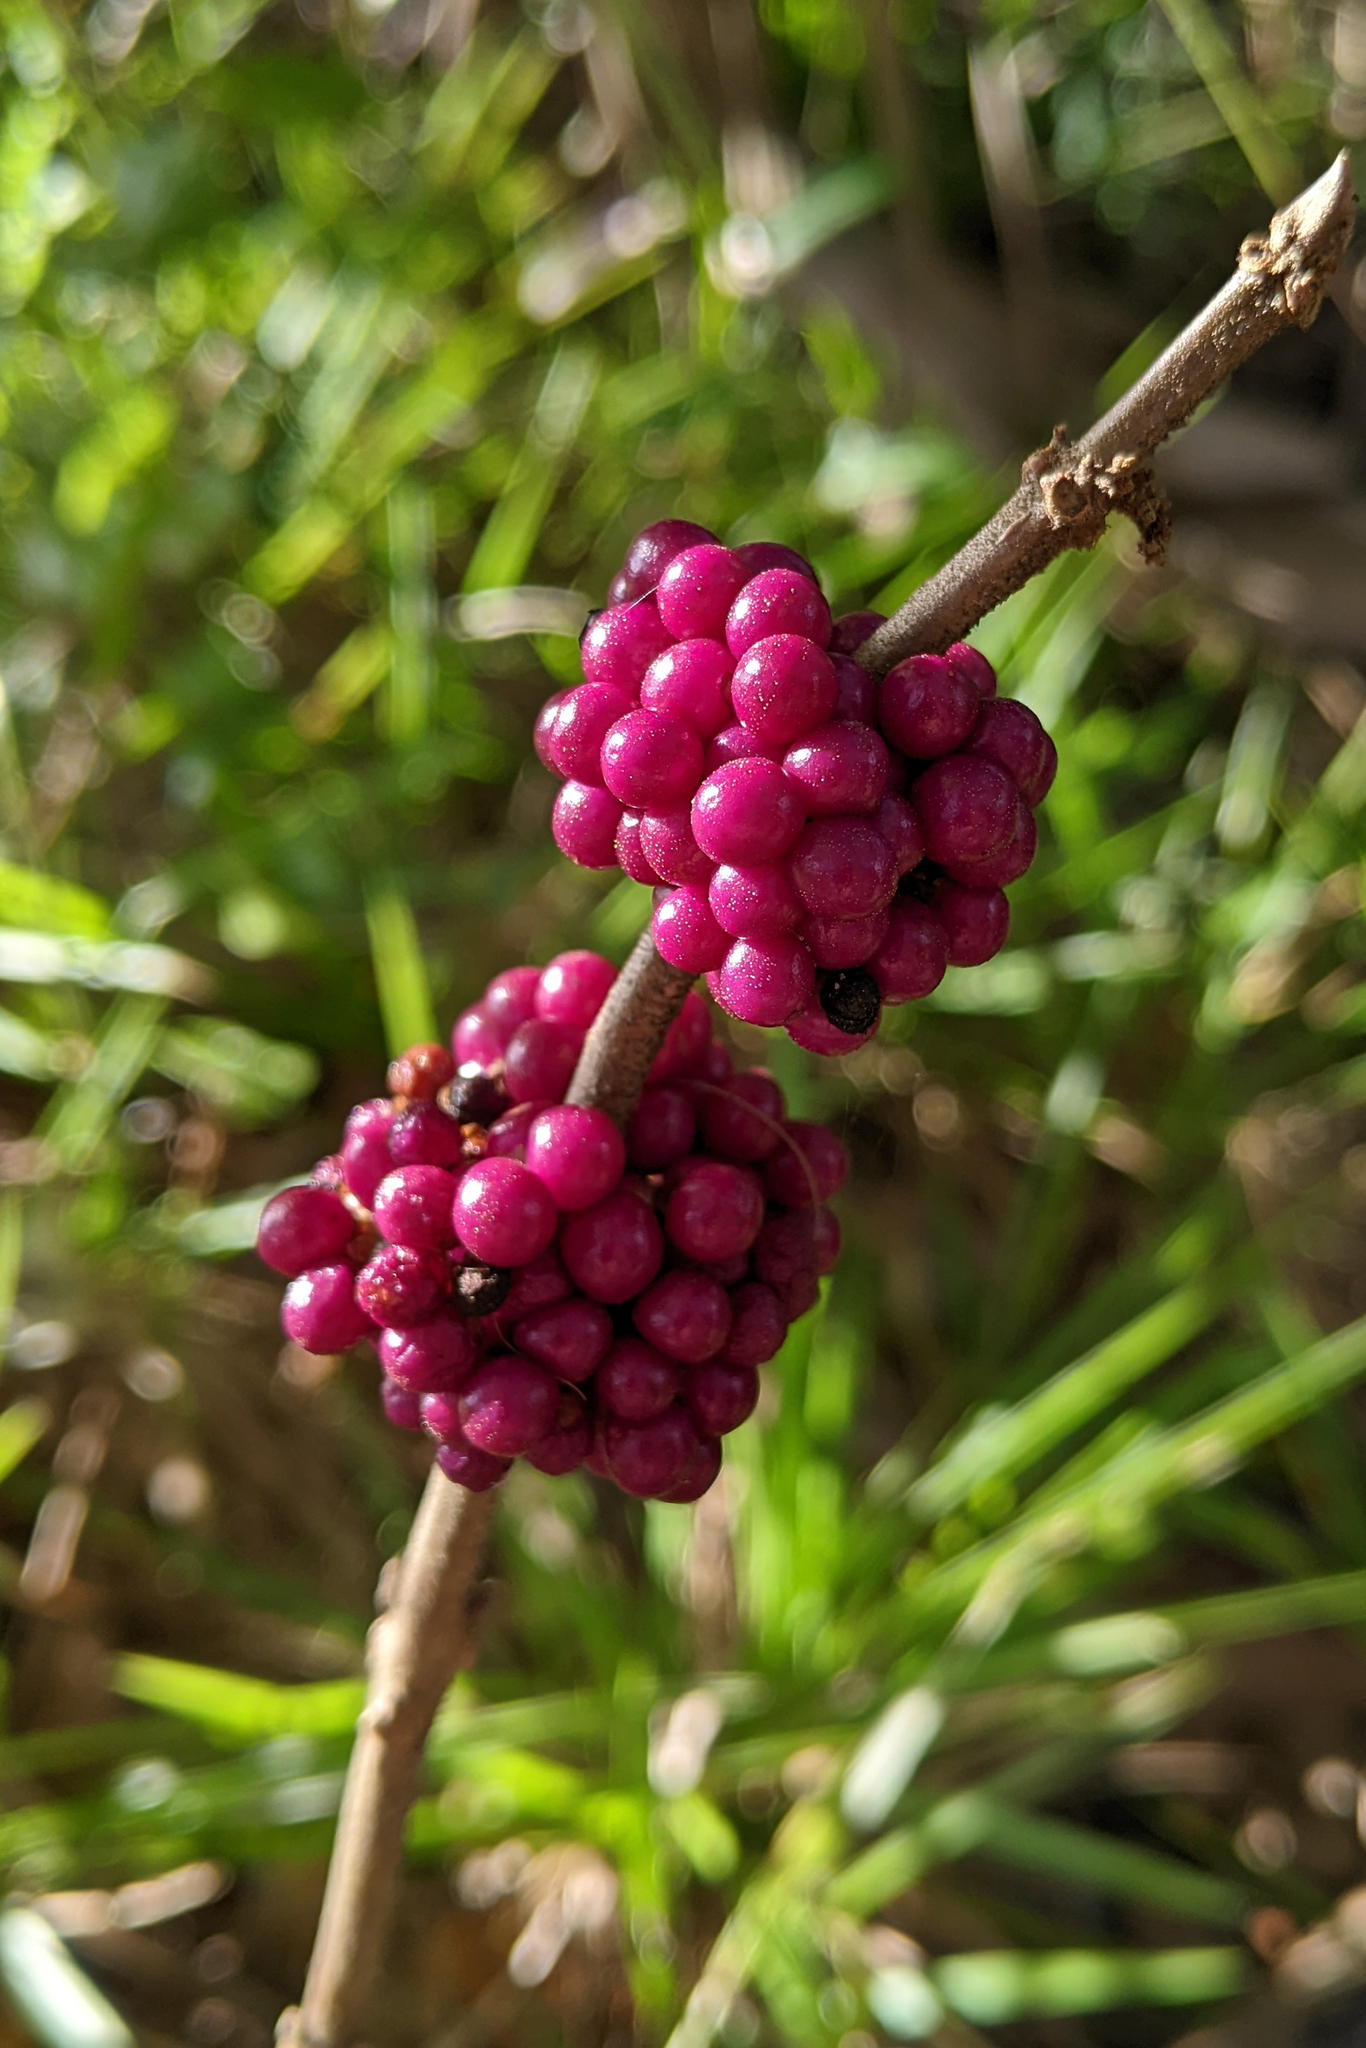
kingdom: Plantae
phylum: Tracheophyta
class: Magnoliopsida
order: Lamiales
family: Lamiaceae
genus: Callicarpa
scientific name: Callicarpa americana
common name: American beautyberry
